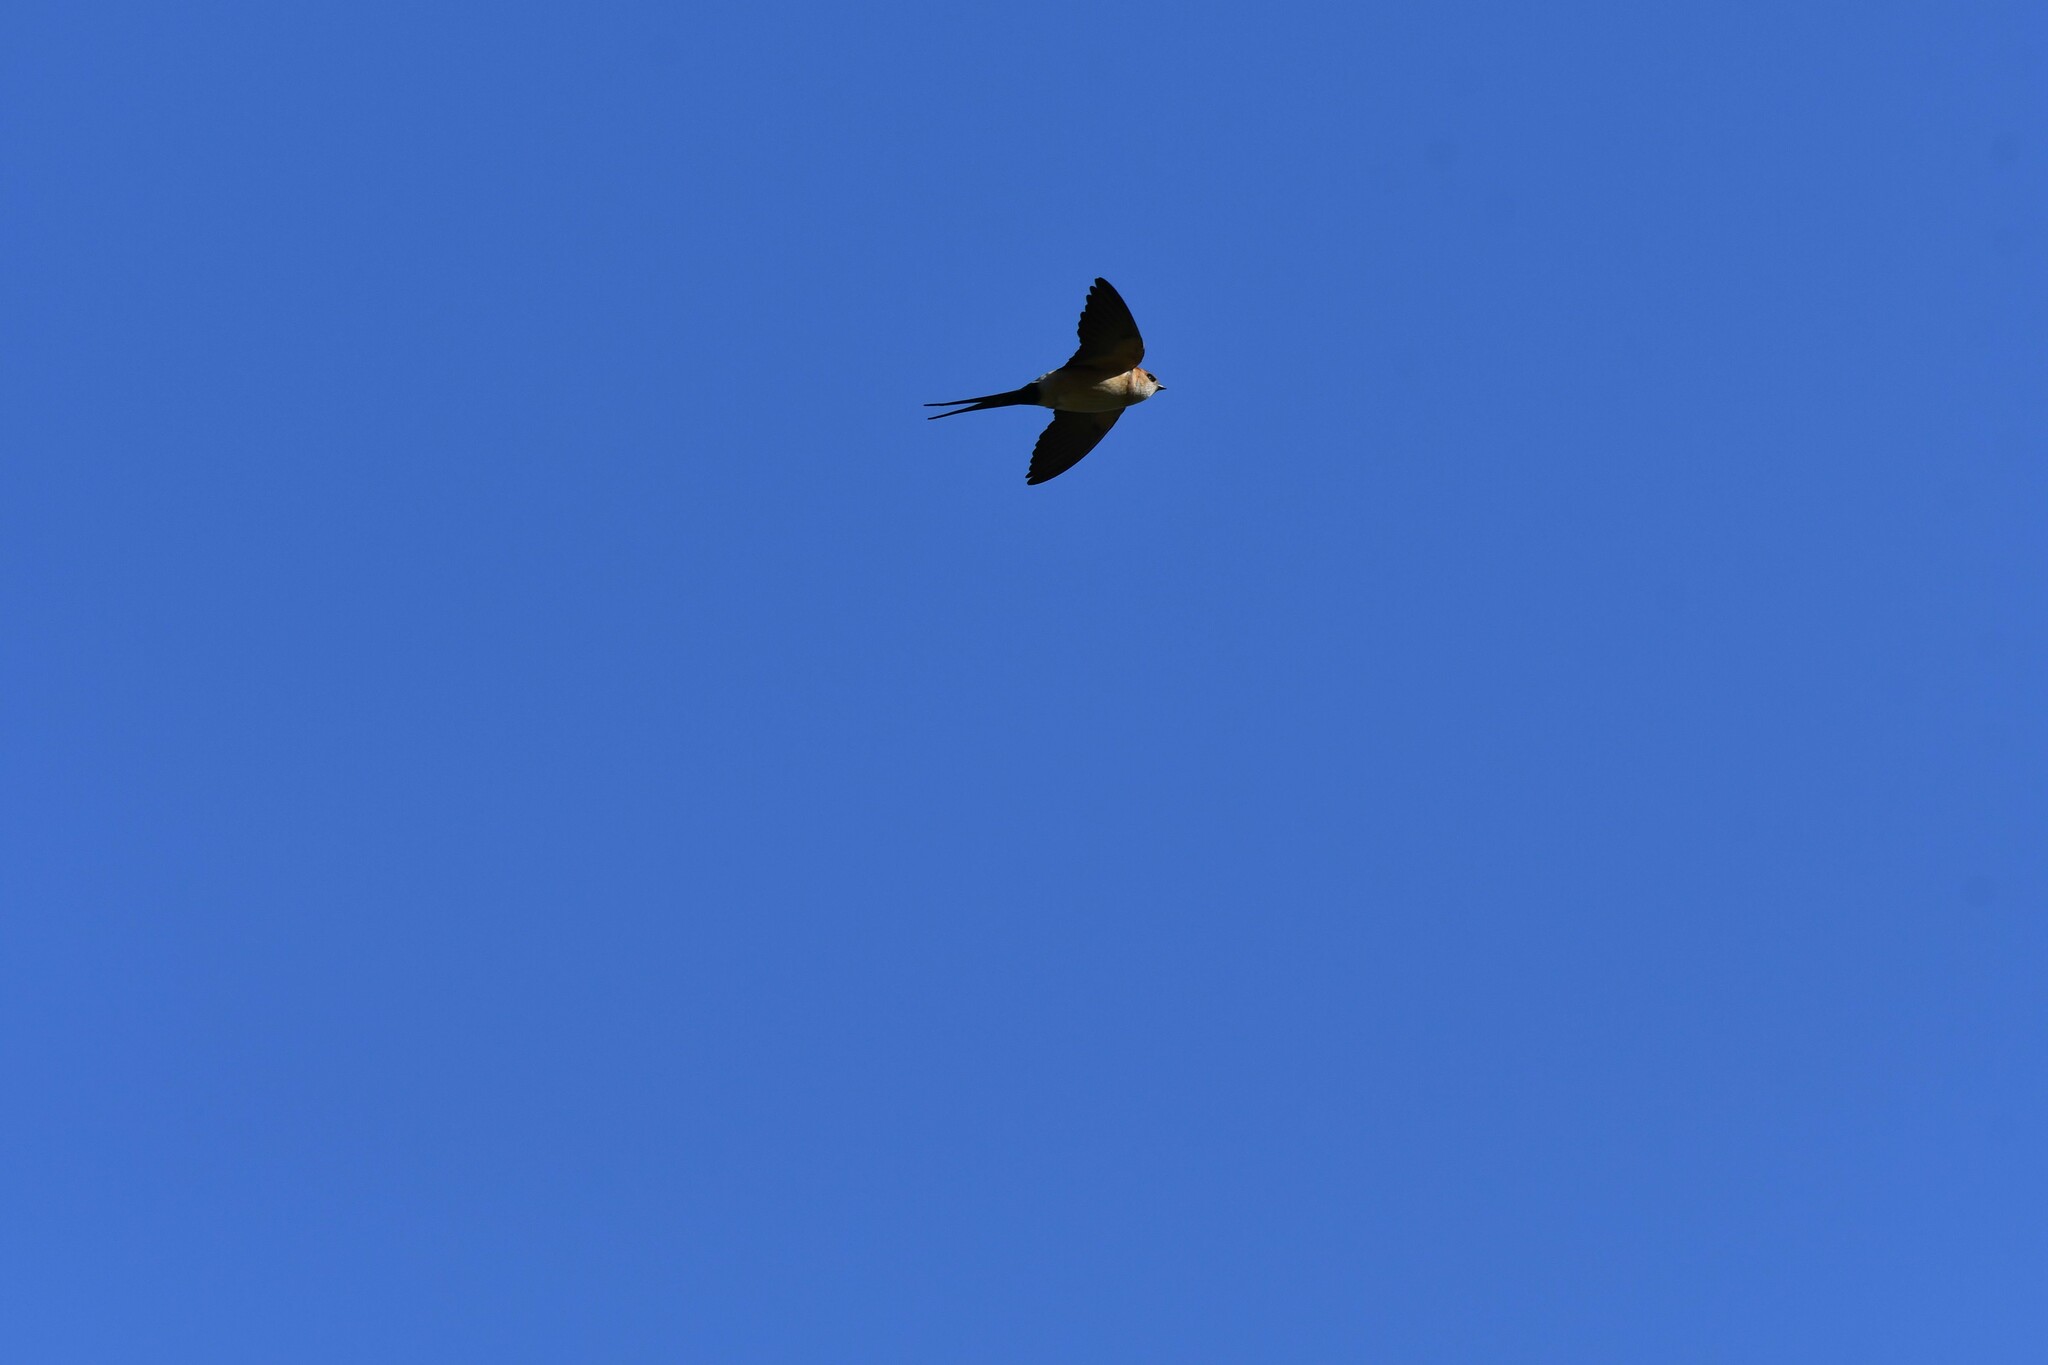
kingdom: Animalia
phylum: Chordata
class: Aves
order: Passeriformes
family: Hirundinidae
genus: Cecropis
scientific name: Cecropis daurica
